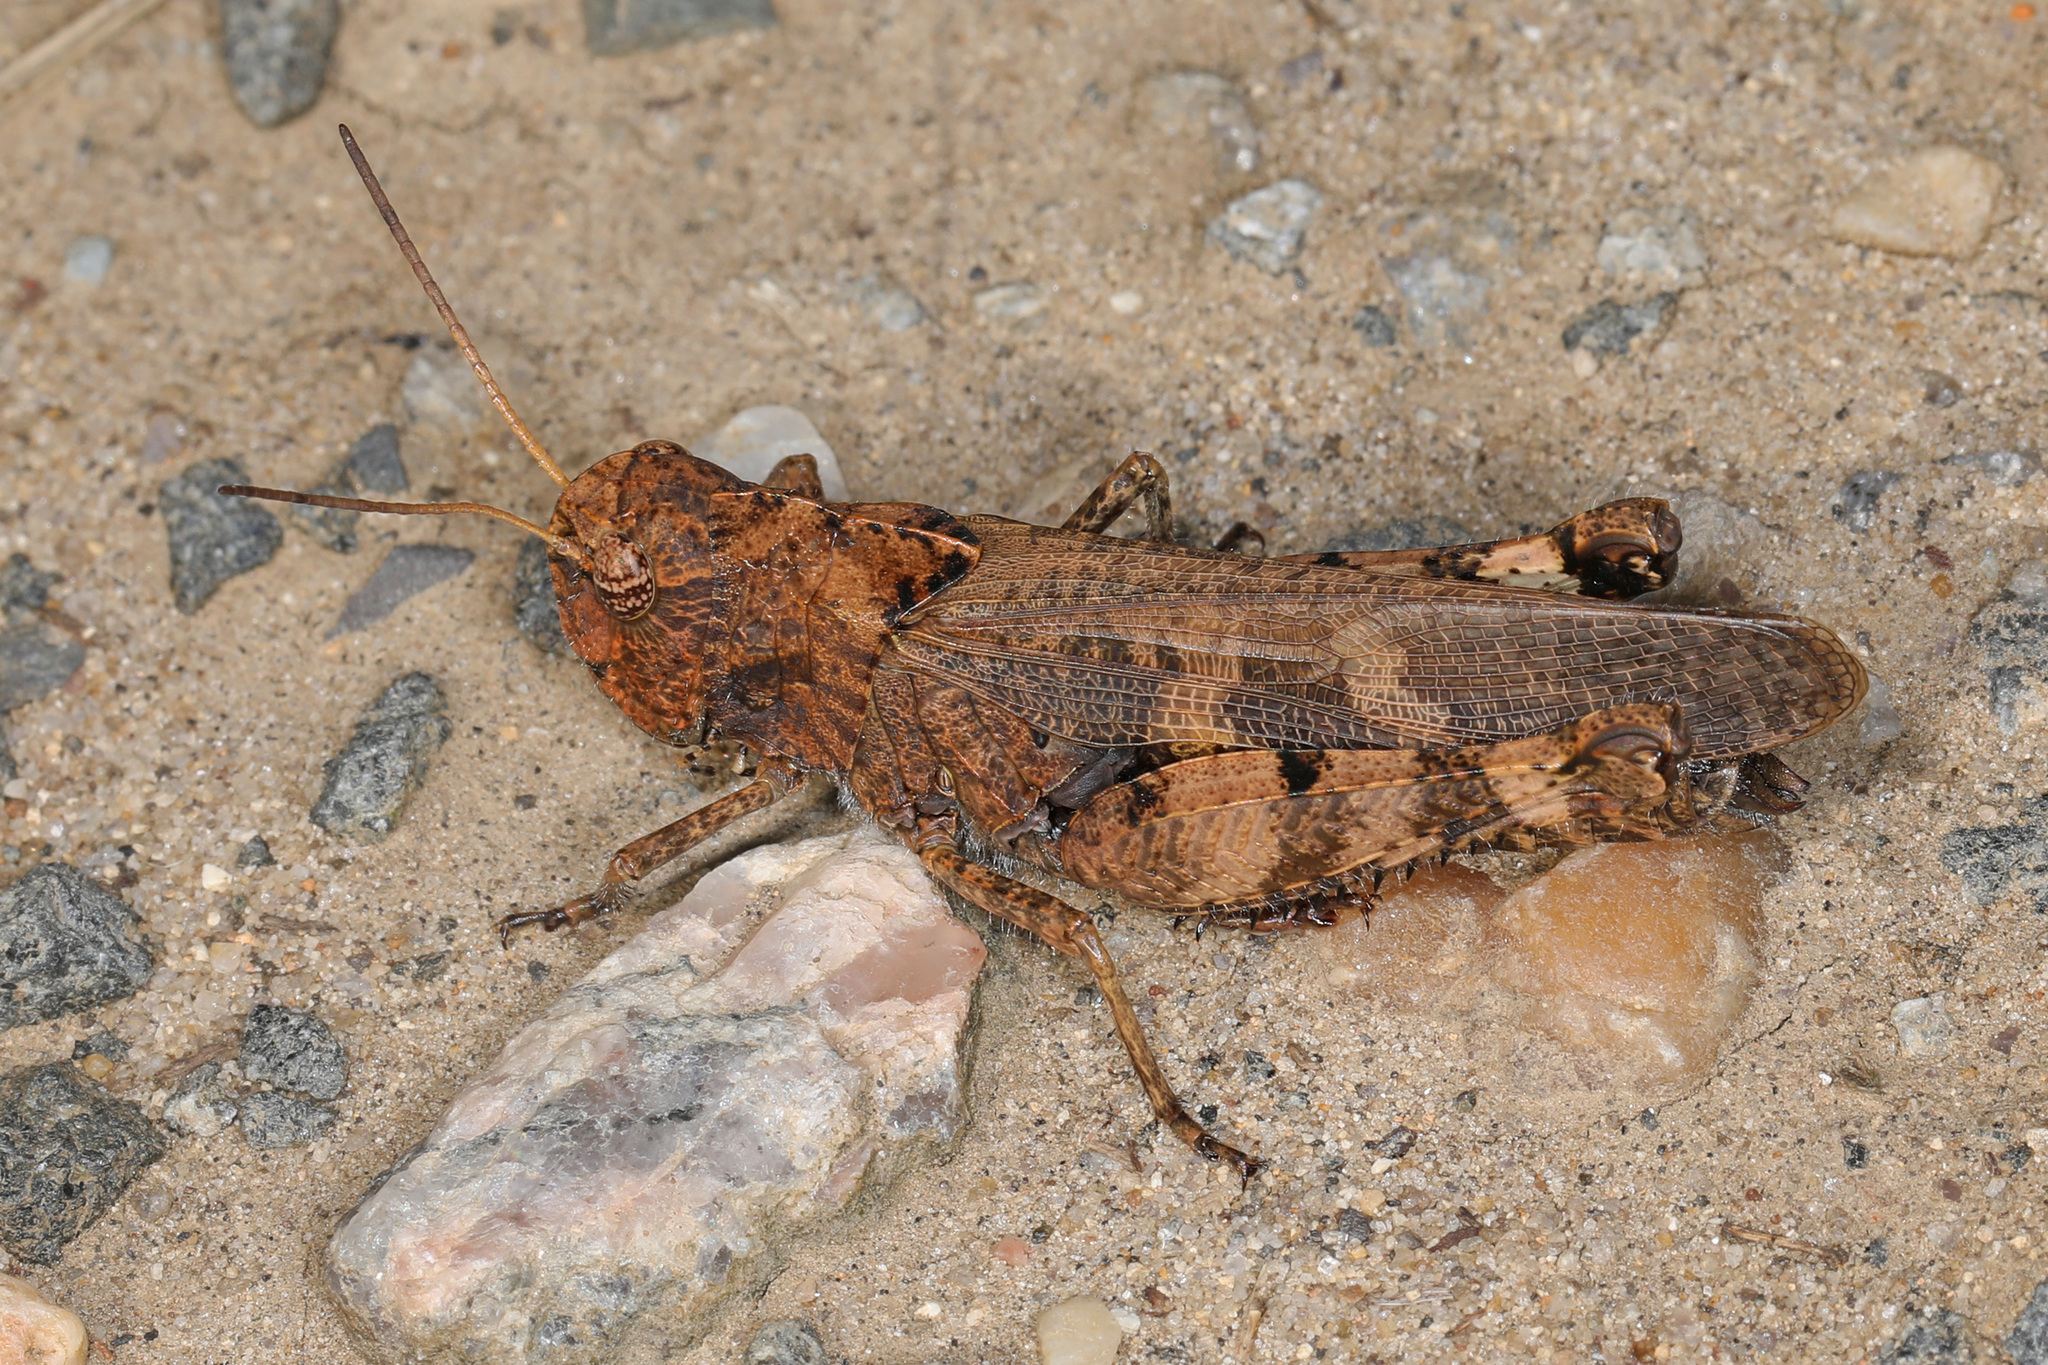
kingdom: Animalia
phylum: Arthropoda
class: Insecta
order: Orthoptera
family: Acrididae
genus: Encoptolophus
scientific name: Encoptolophus sordidus
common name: Dusky grasshopper
